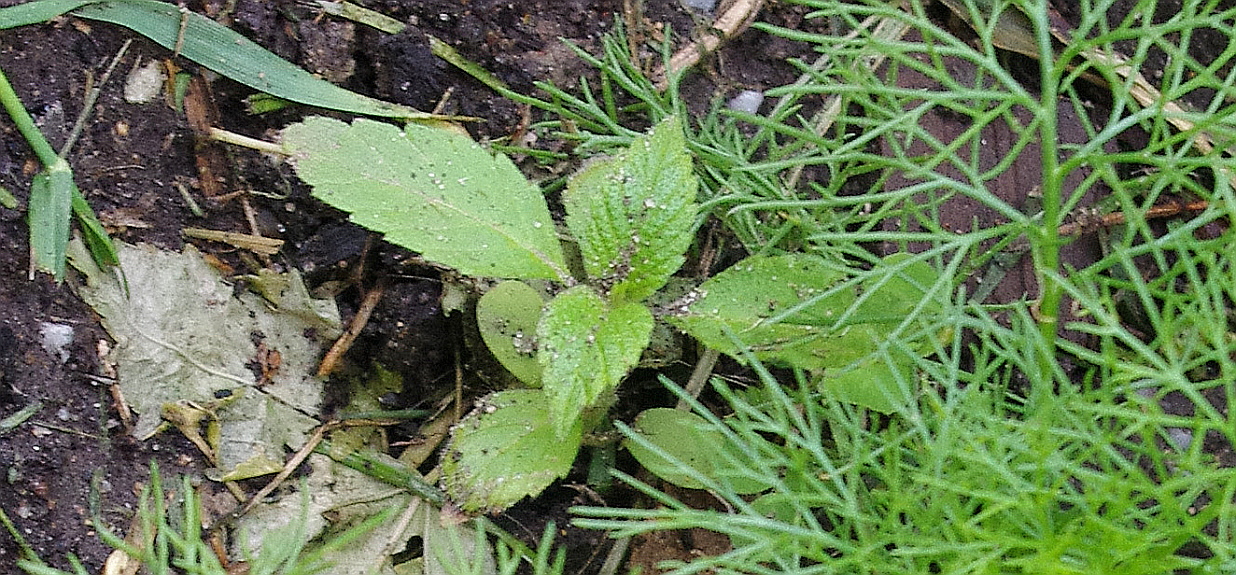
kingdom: Plantae
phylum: Tracheophyta
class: Magnoliopsida
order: Lamiales
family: Lamiaceae
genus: Galeopsis
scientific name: Galeopsis
